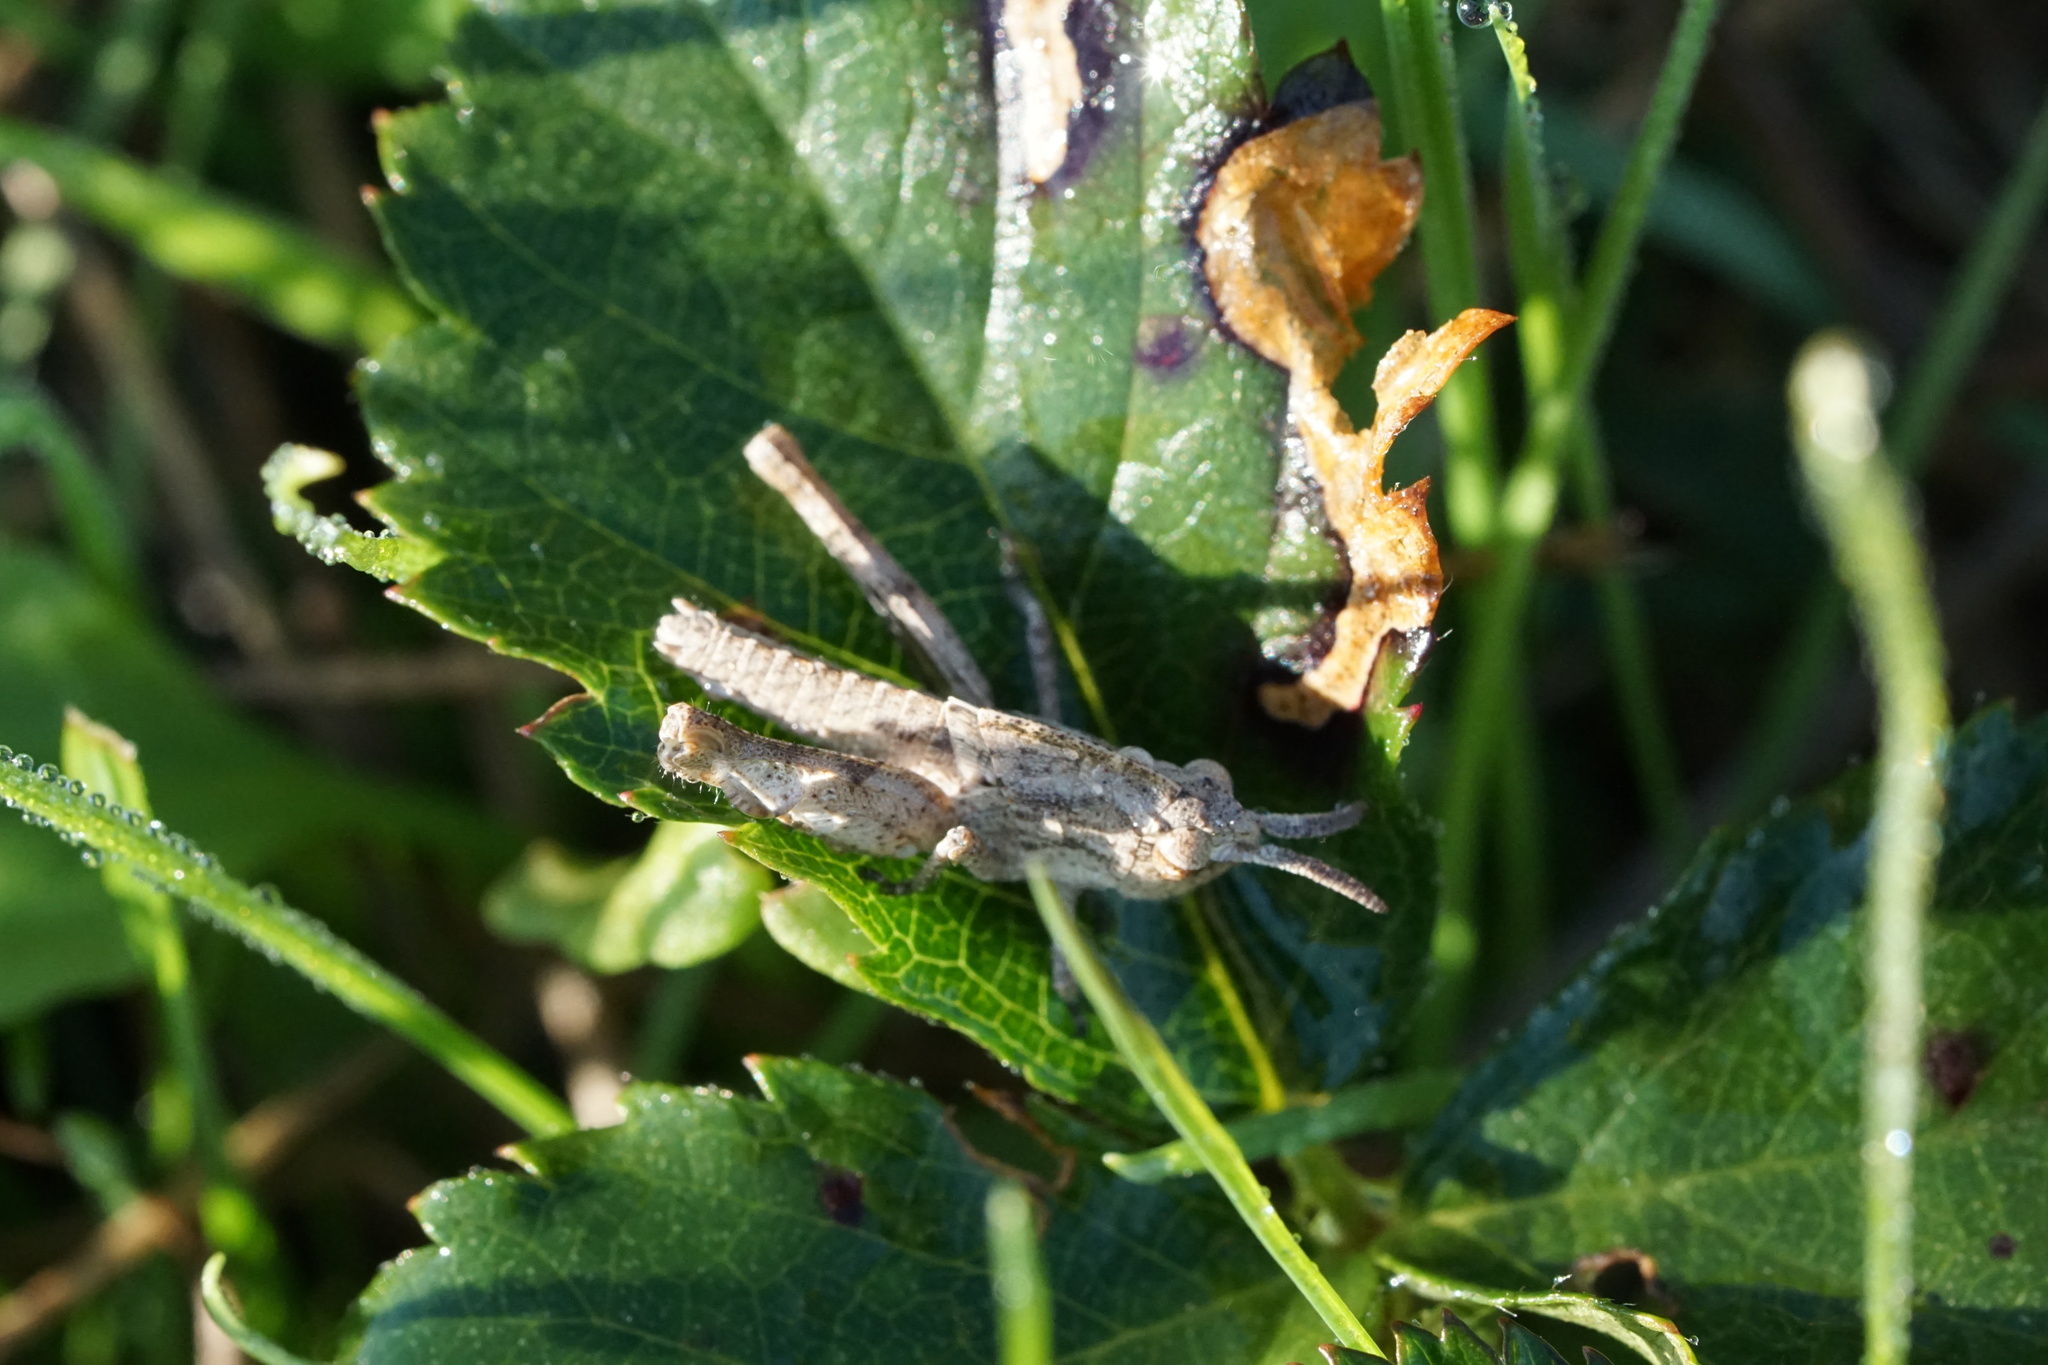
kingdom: Animalia
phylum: Arthropoda
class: Insecta
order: Orthoptera
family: Acrididae
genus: Chortophaga
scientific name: Chortophaga viridifasciata
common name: Green-striped grasshopper
